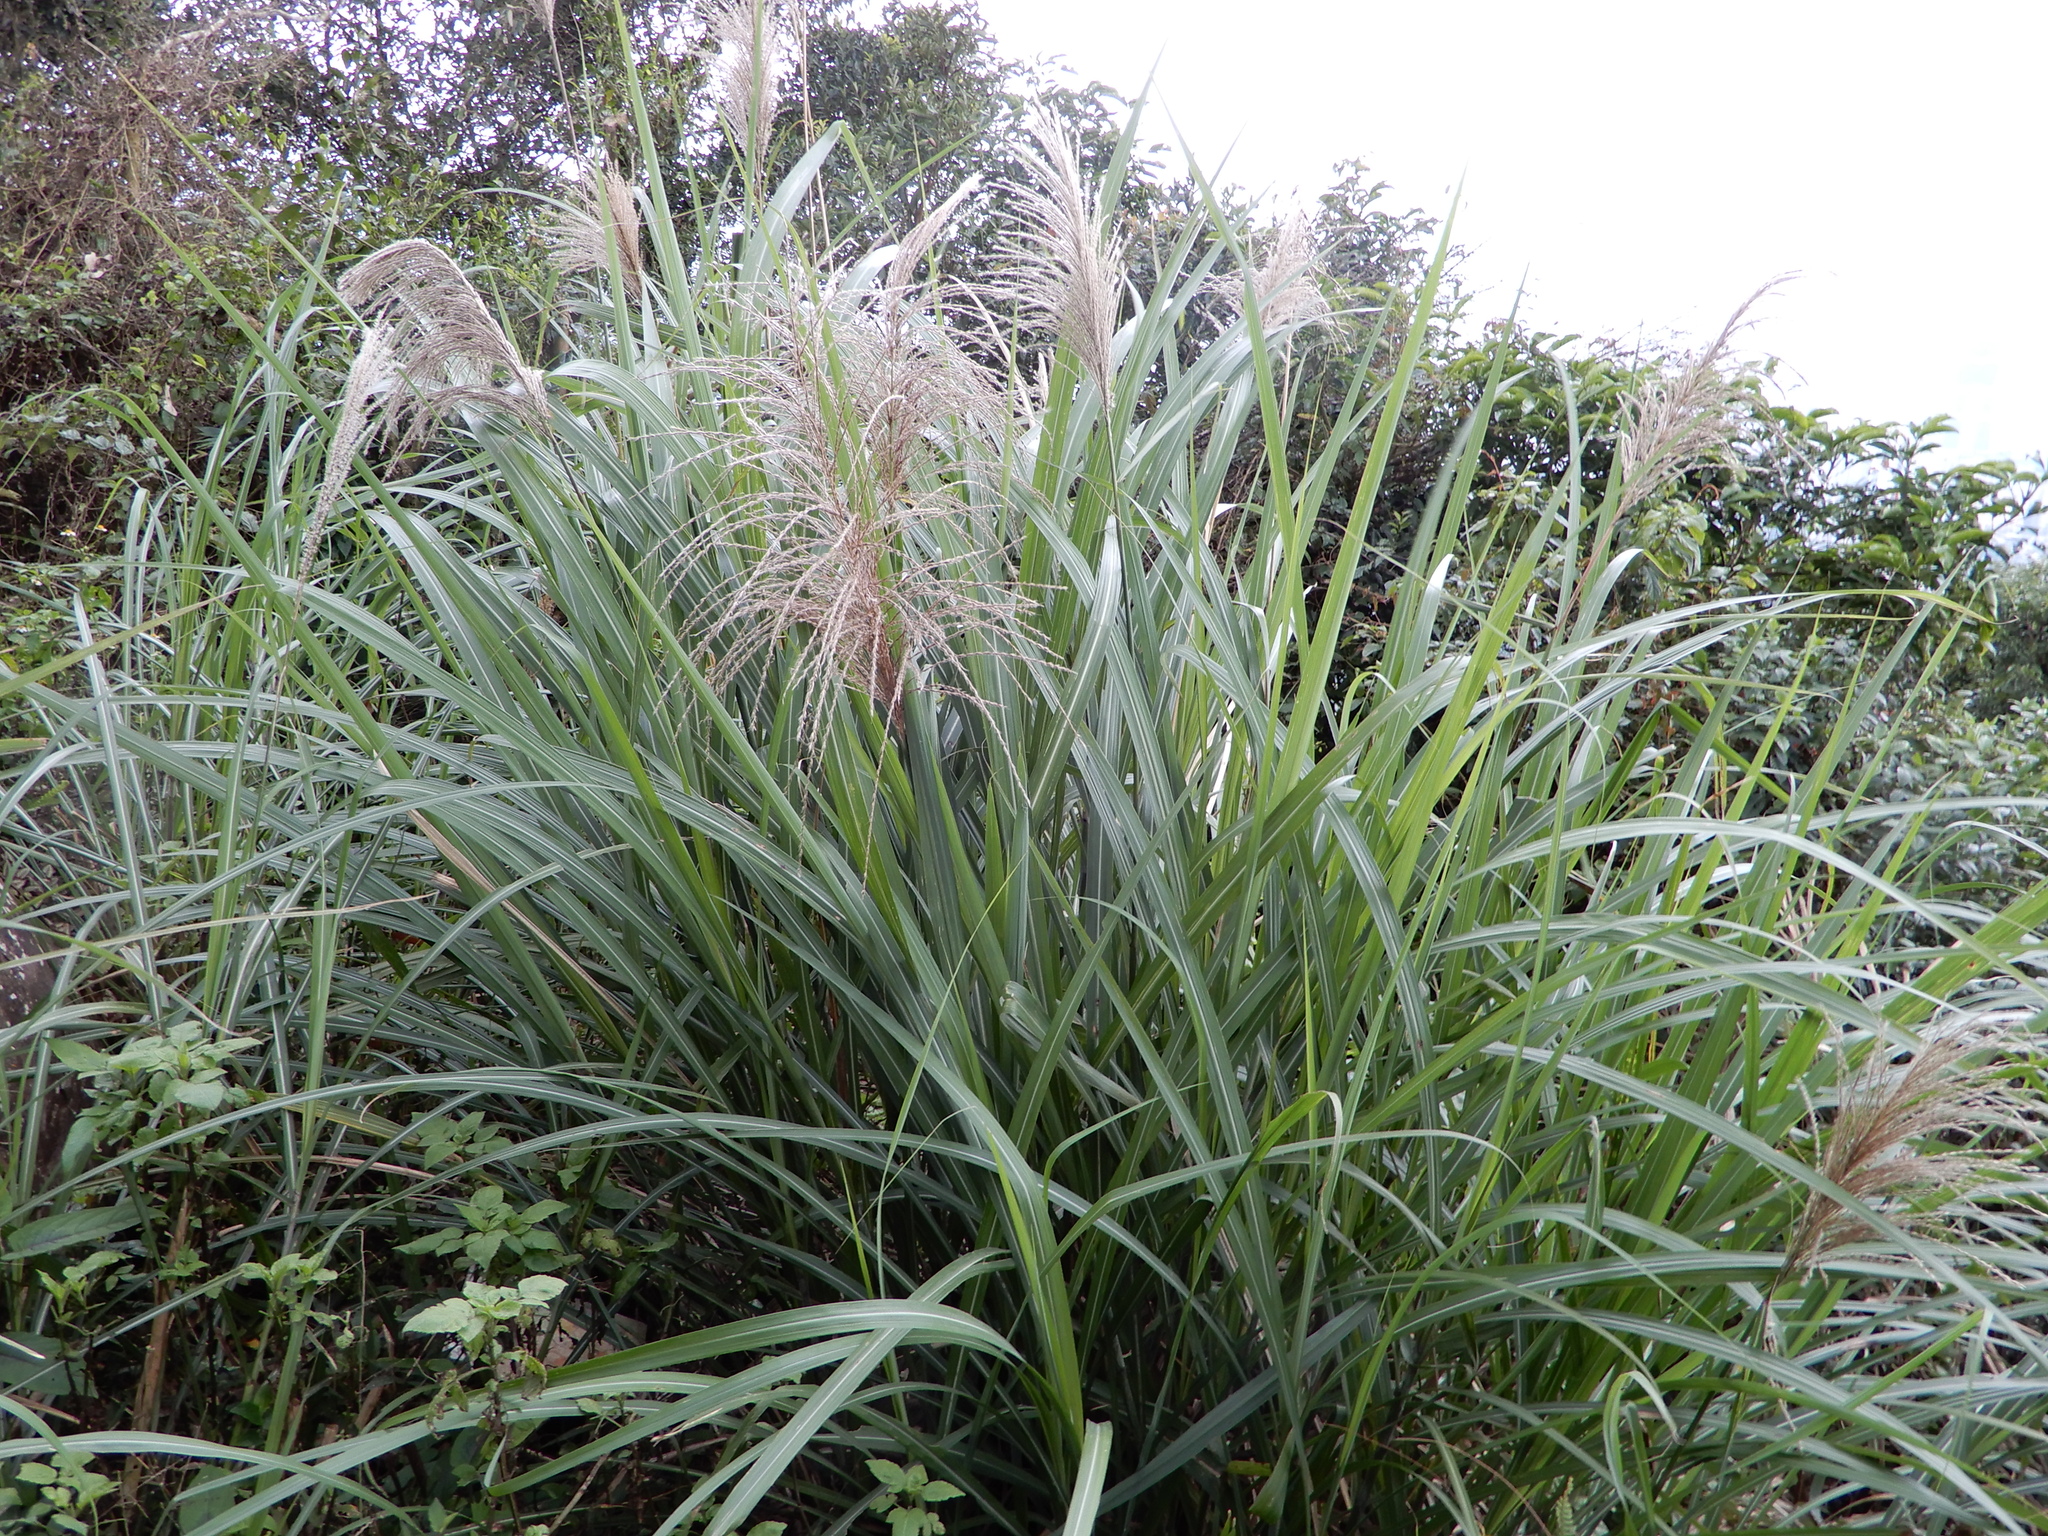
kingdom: Plantae
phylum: Tracheophyta
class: Liliopsida
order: Poales
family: Poaceae
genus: Miscanthus
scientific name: Miscanthus sinensis
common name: Chinese silvergrass
